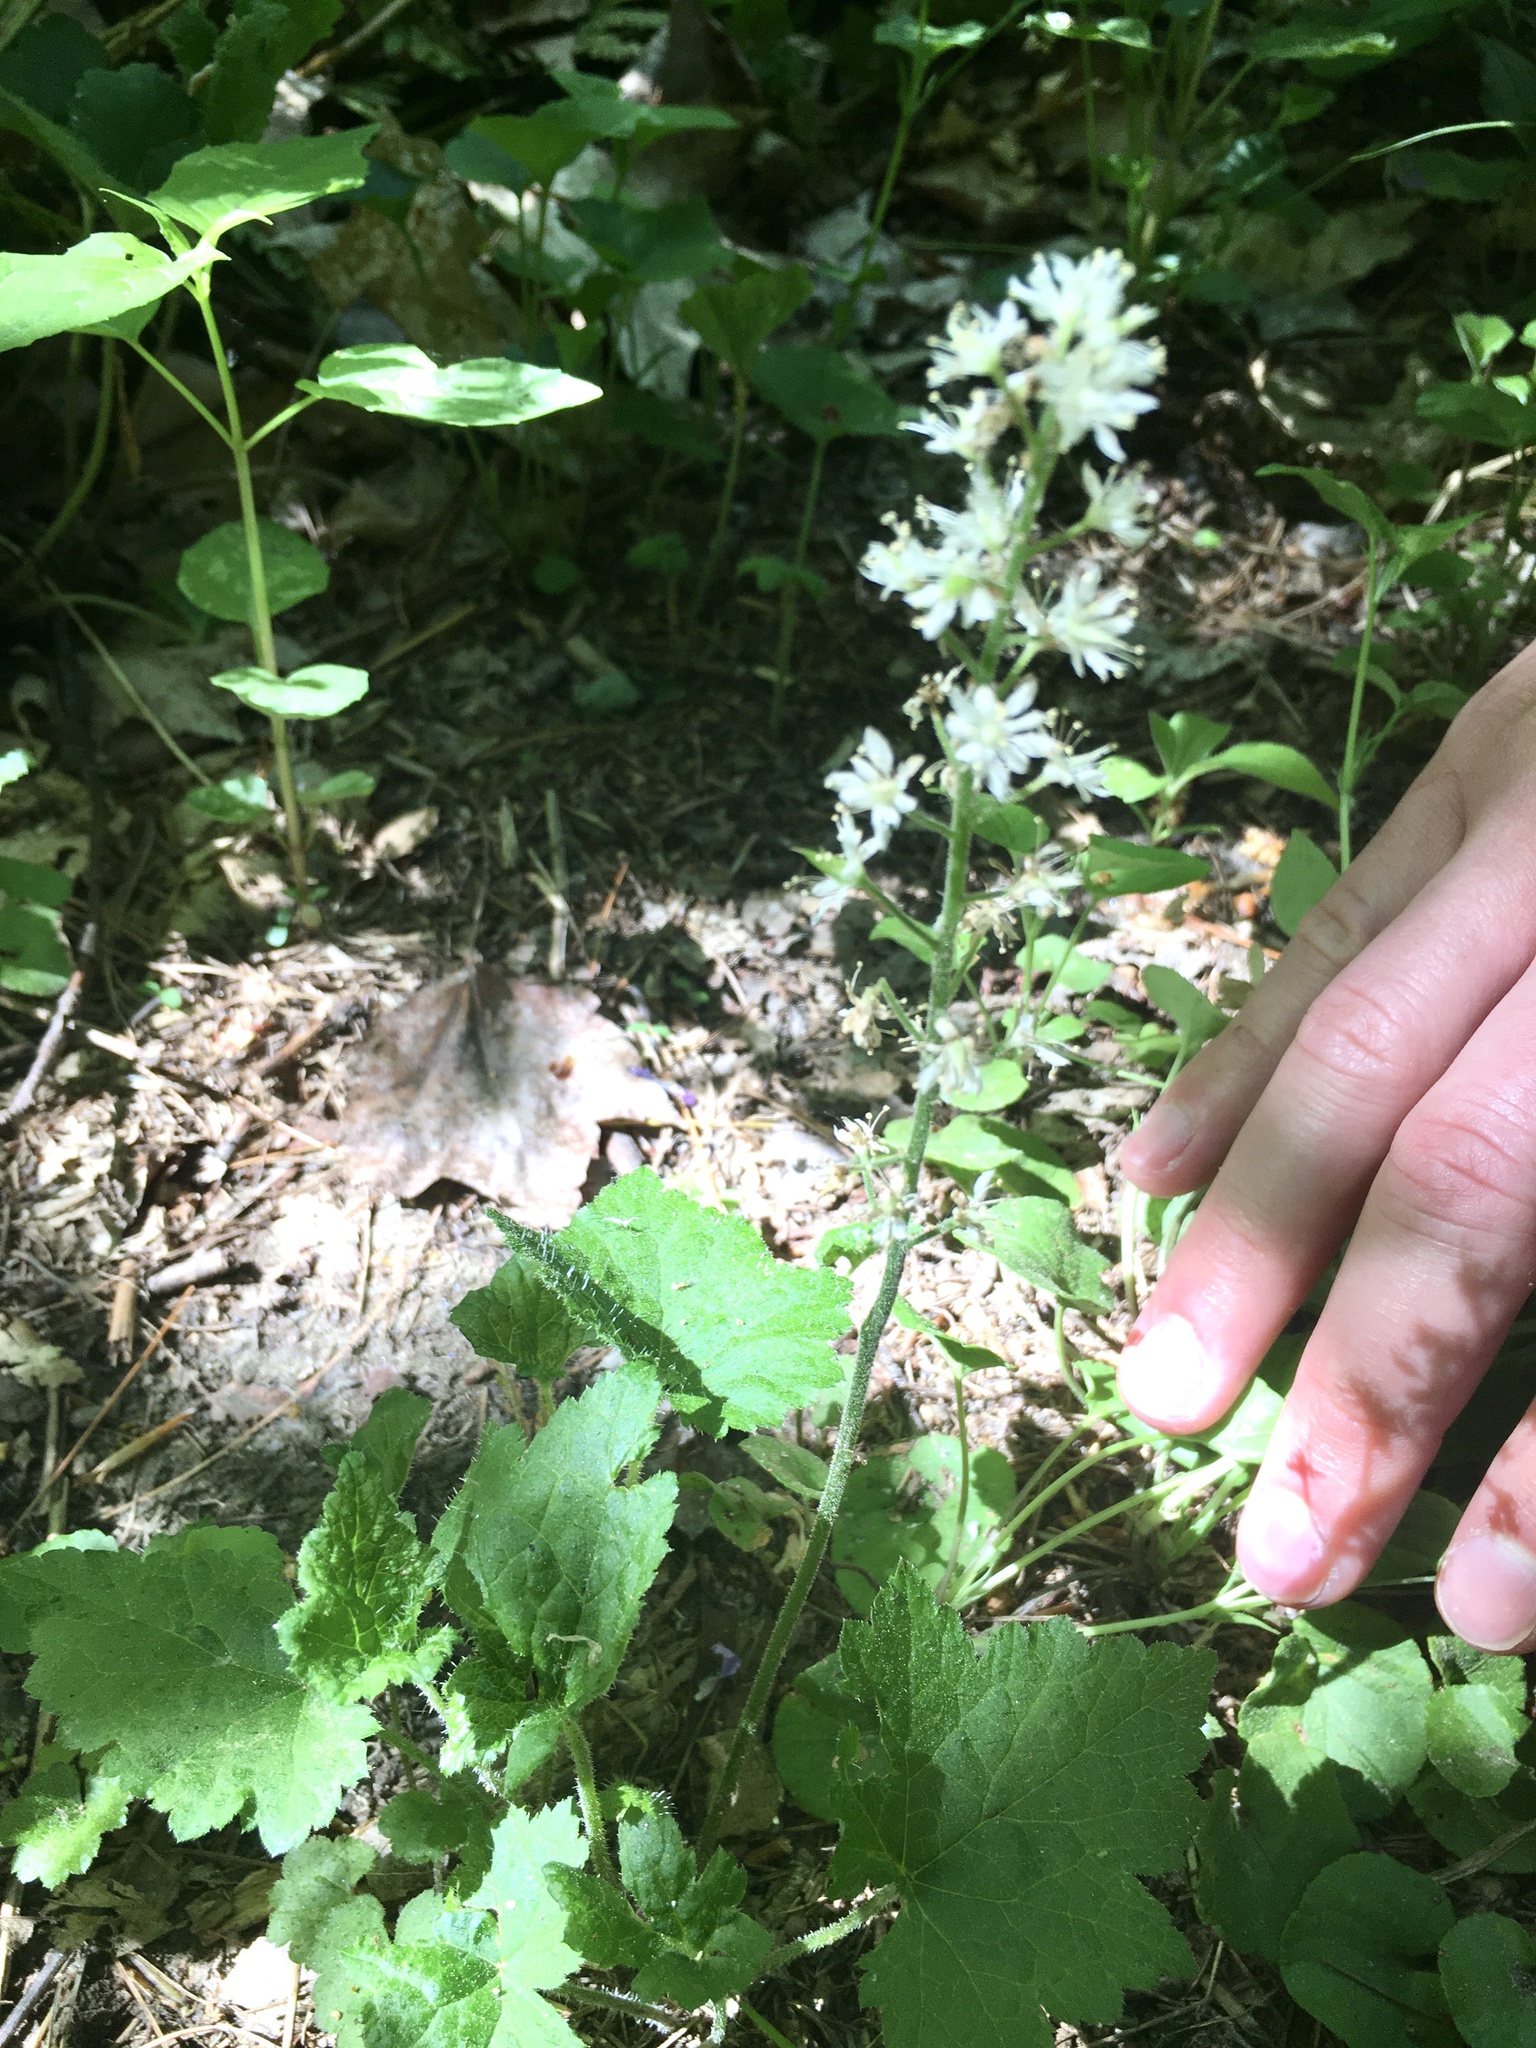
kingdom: Plantae
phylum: Tracheophyta
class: Magnoliopsida
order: Saxifragales
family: Saxifragaceae
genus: Tiarella
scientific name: Tiarella stolonifera
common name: Stoloniferous foamflower
